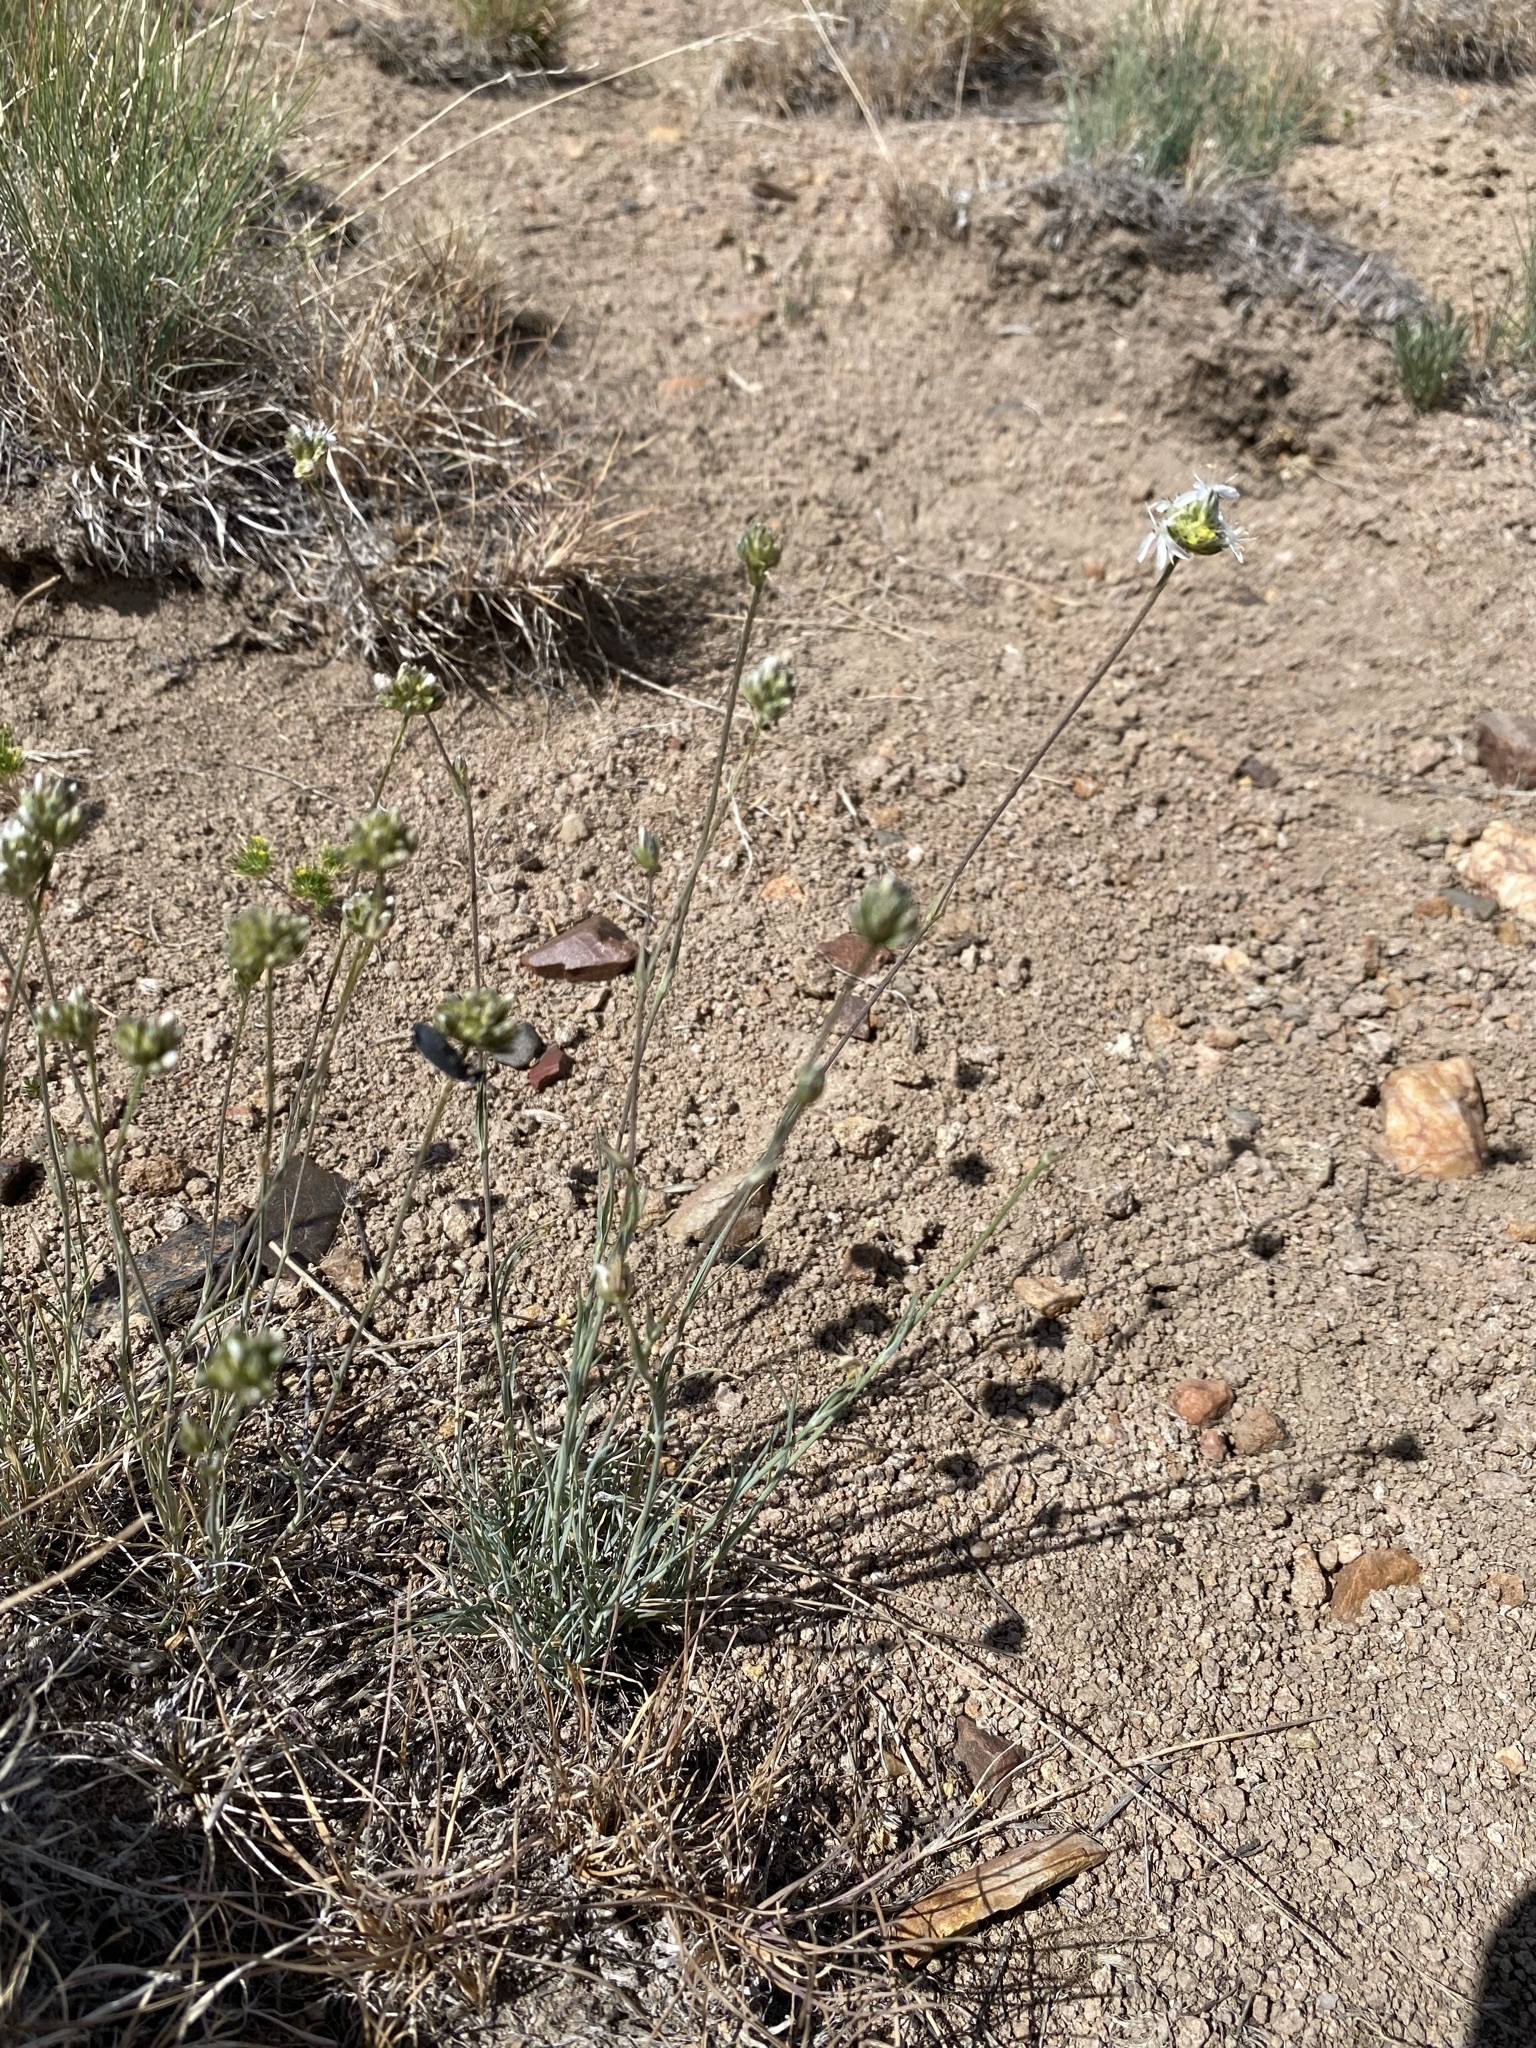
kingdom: Plantae
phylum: Tracheophyta
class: Magnoliopsida
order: Caryophyllales
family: Caryophyllaceae
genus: Eremogone
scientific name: Eremogone congesta
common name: Ballhead sandwort
